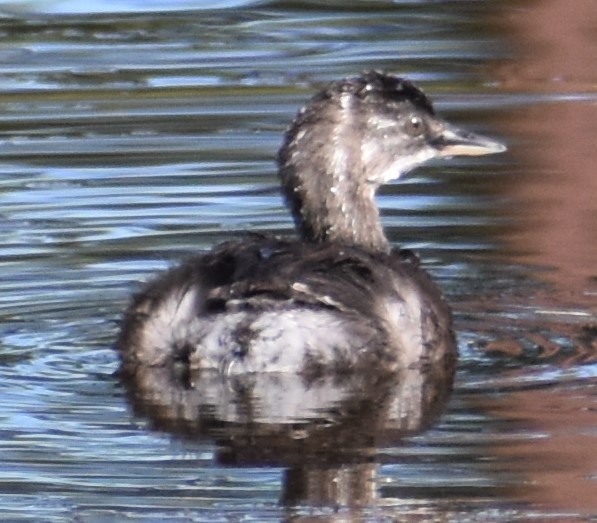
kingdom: Animalia
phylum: Chordata
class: Aves
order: Podicipediformes
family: Podicipedidae
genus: Tachybaptus
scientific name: Tachybaptus dominicus
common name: Least grebe
